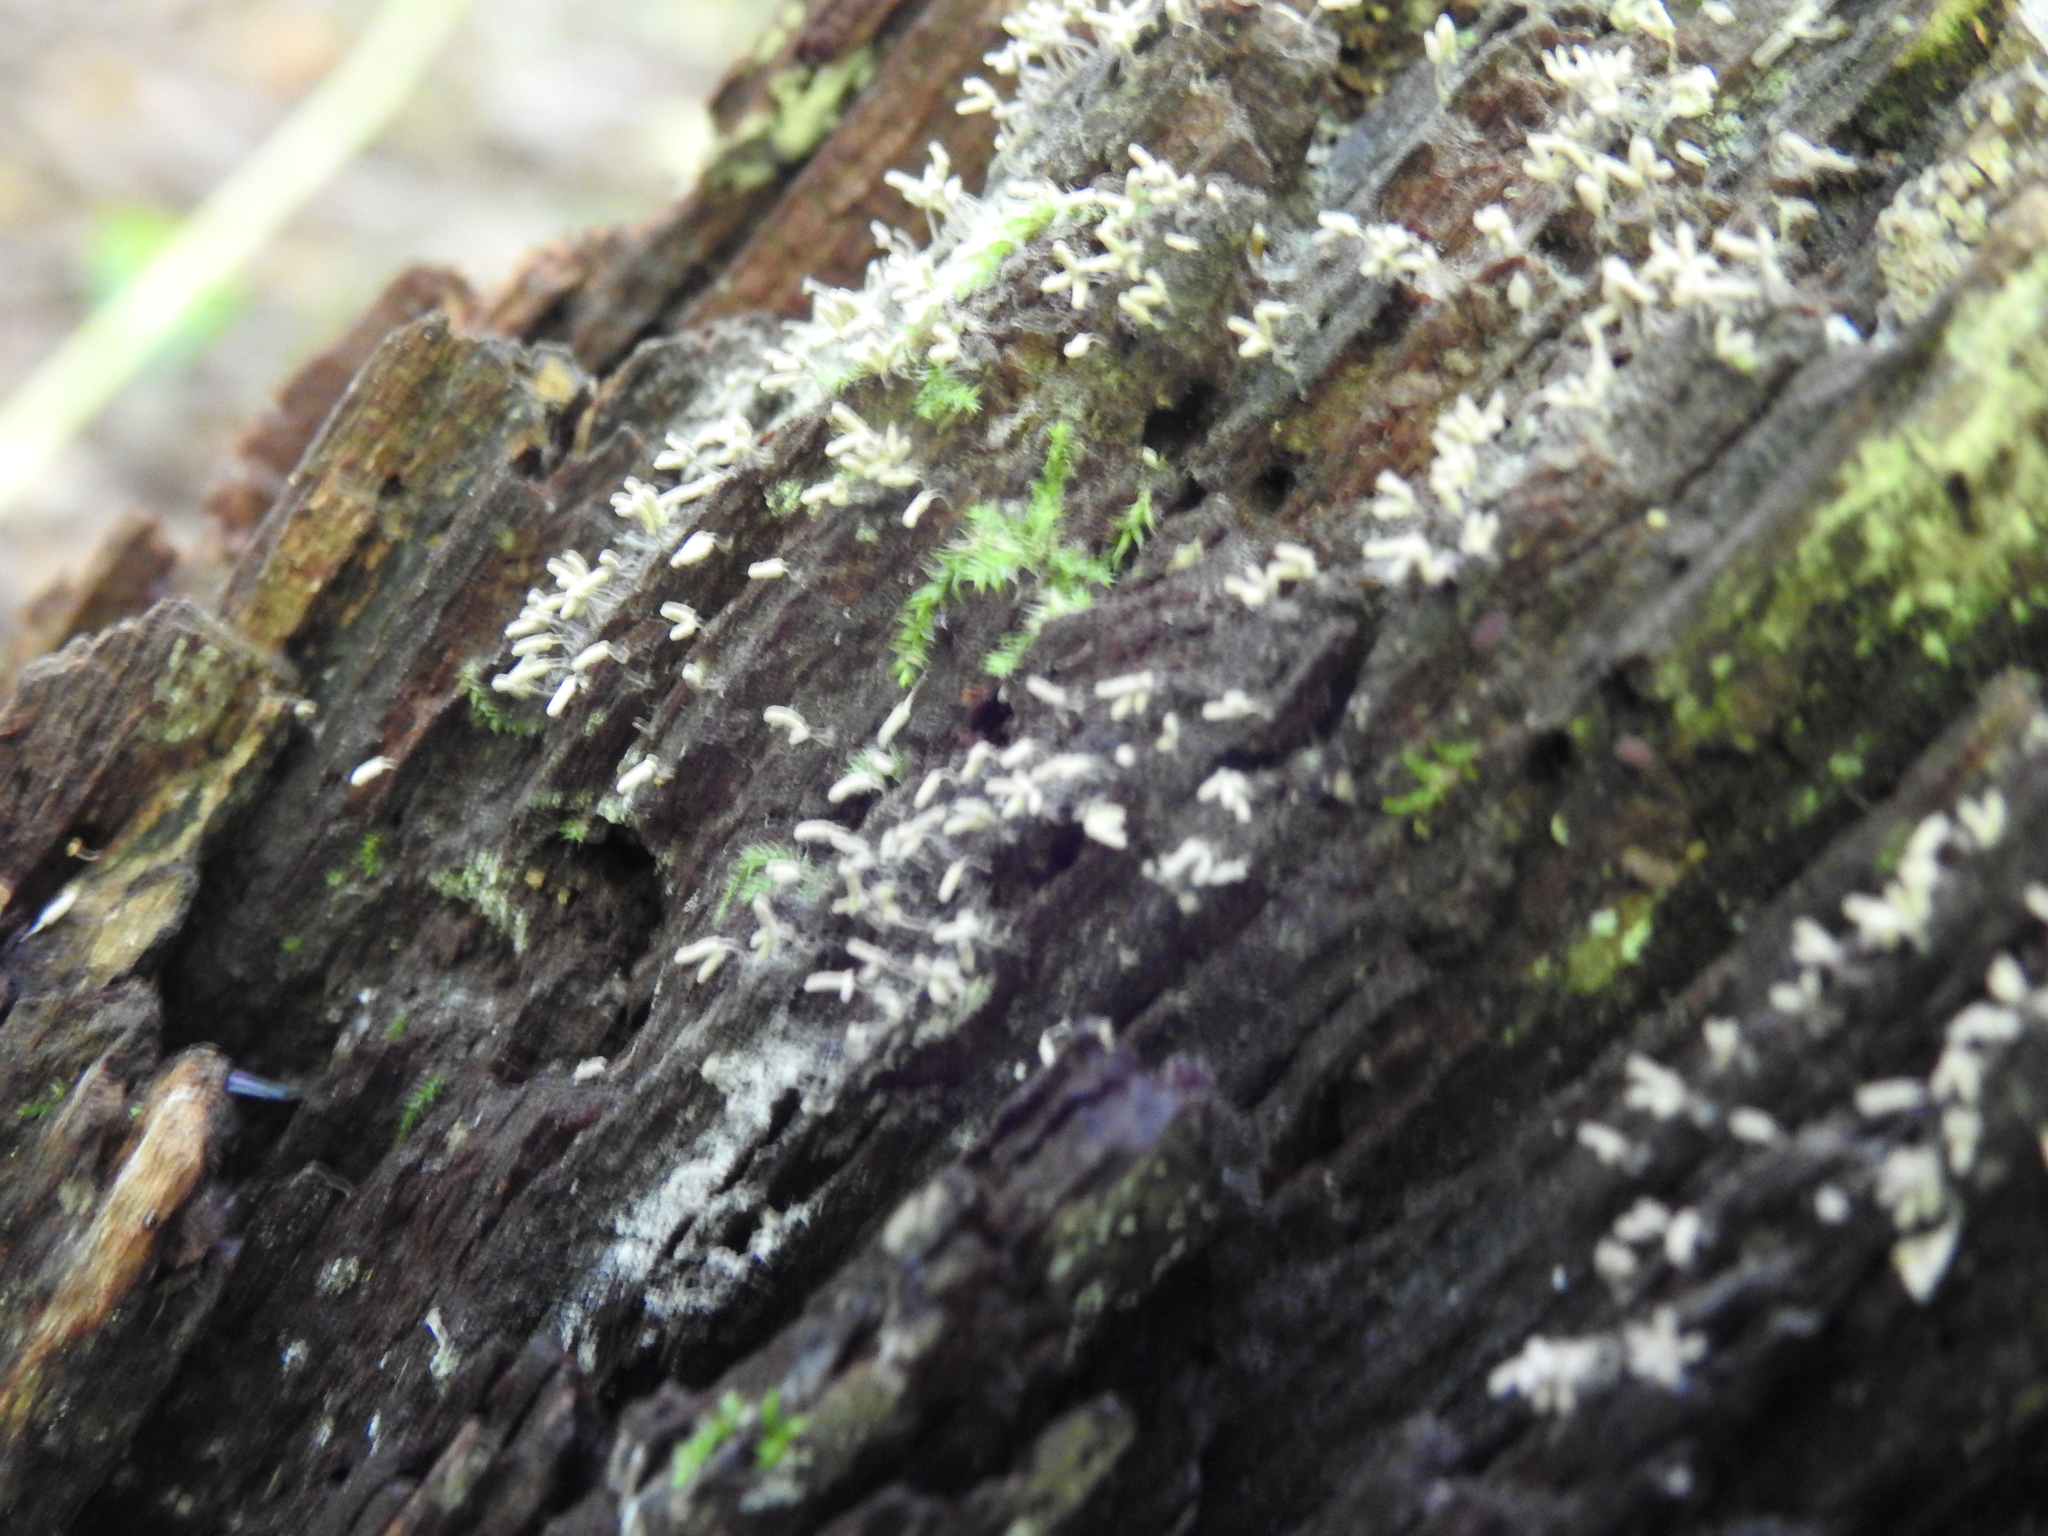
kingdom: Protozoa
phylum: Mycetozoa
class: Myxomycetes
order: Trichiales
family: Arcyriaceae
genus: Arcyria
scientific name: Arcyria cinerea
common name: White carnival candy slime mold
